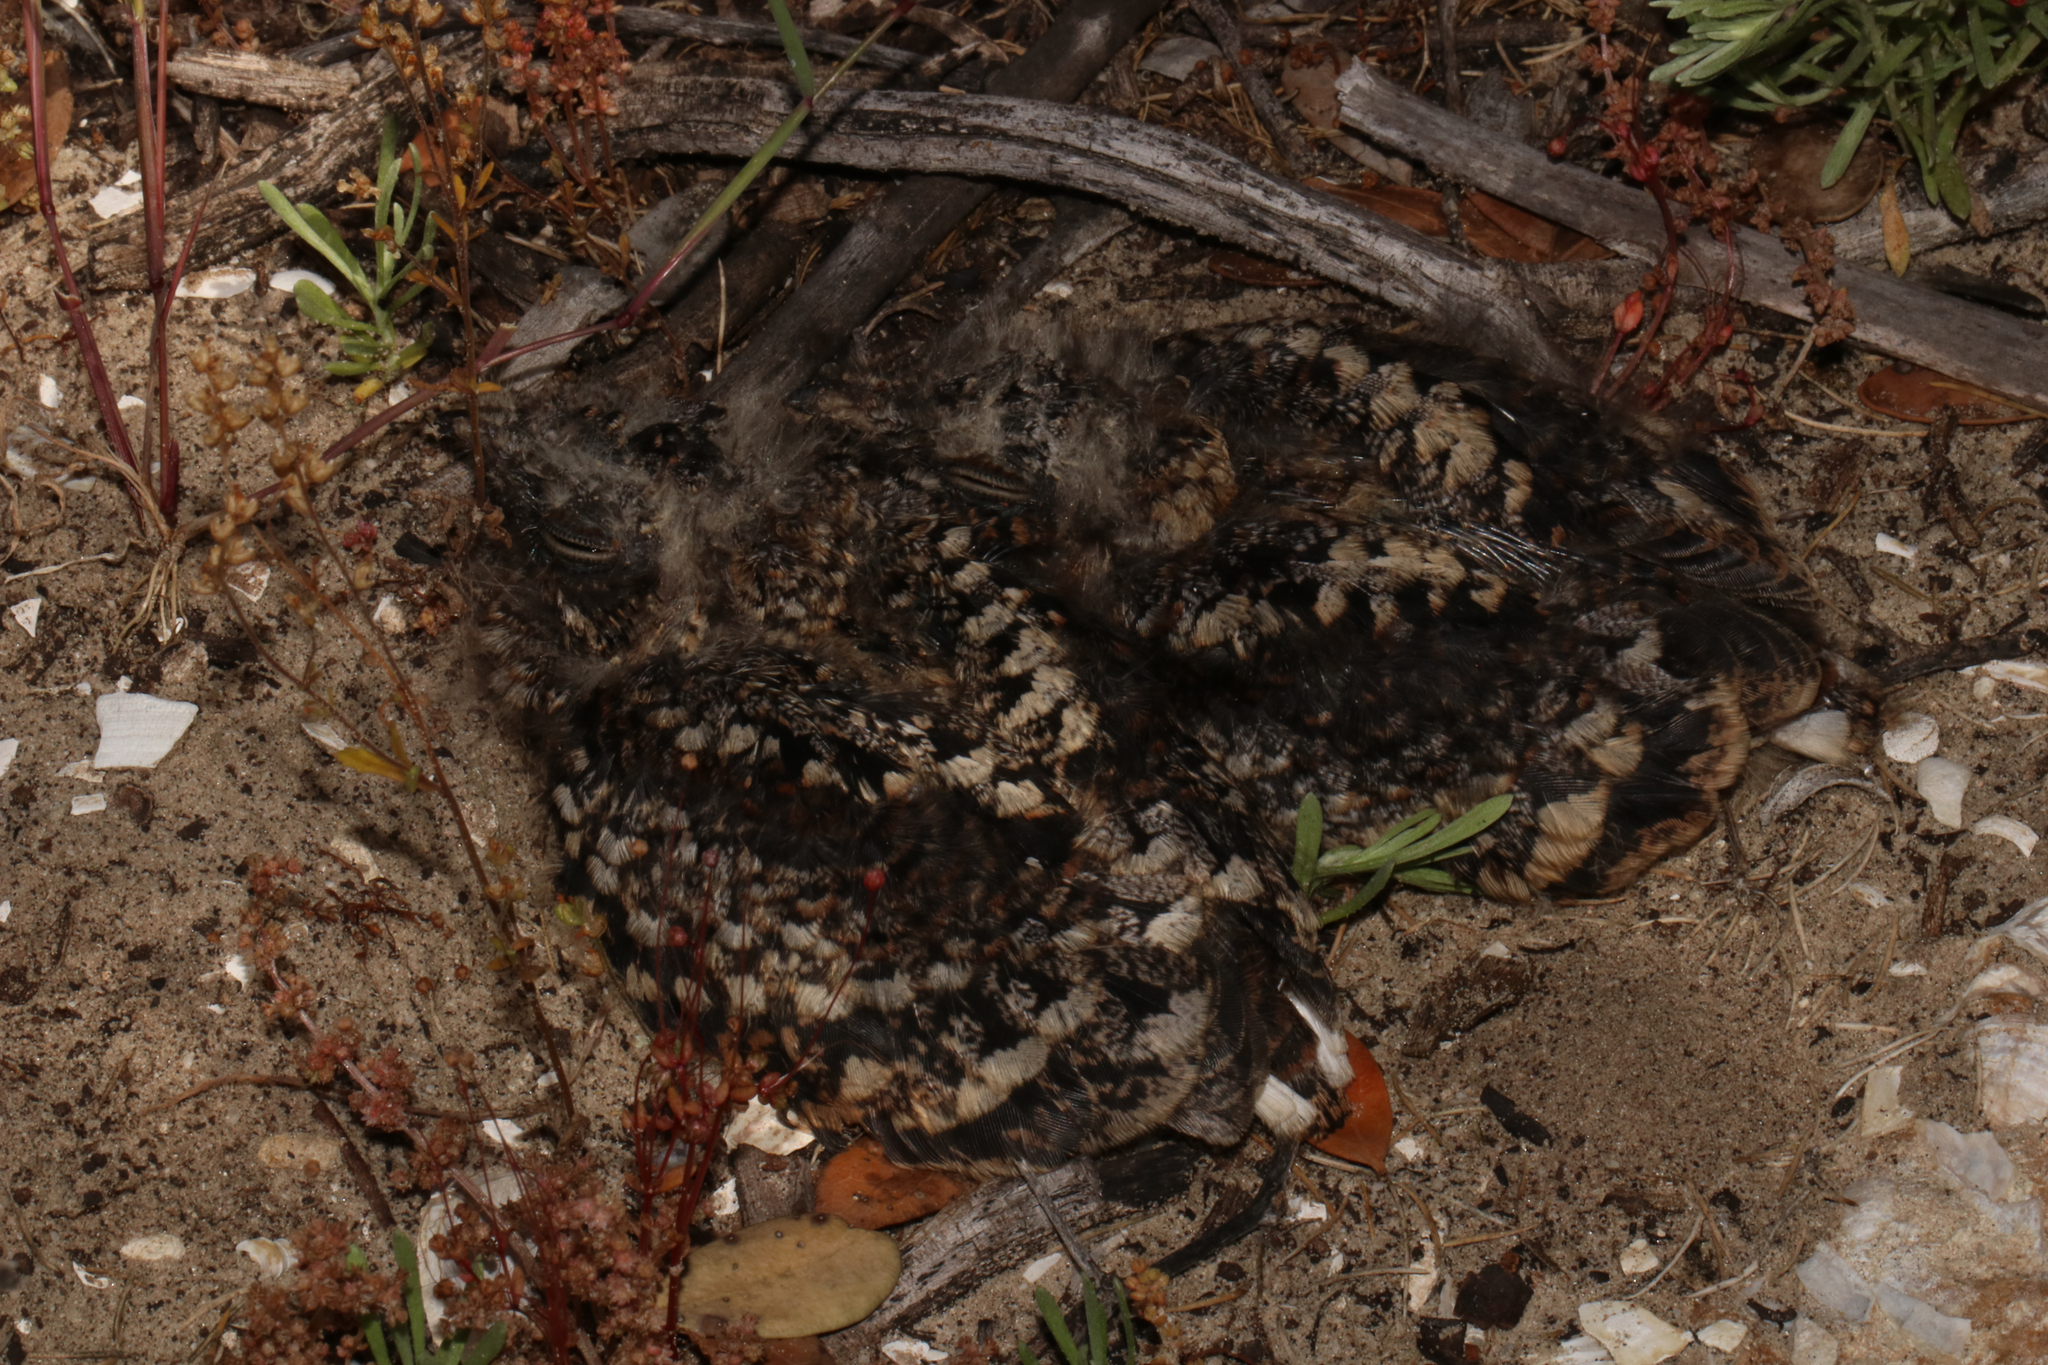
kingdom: Animalia
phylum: Chordata
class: Aves
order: Caprimulgiformes
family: Caprimulgidae
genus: Caprimulgus
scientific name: Caprimulgus pectoralis
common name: Fiery-necked nightjar
